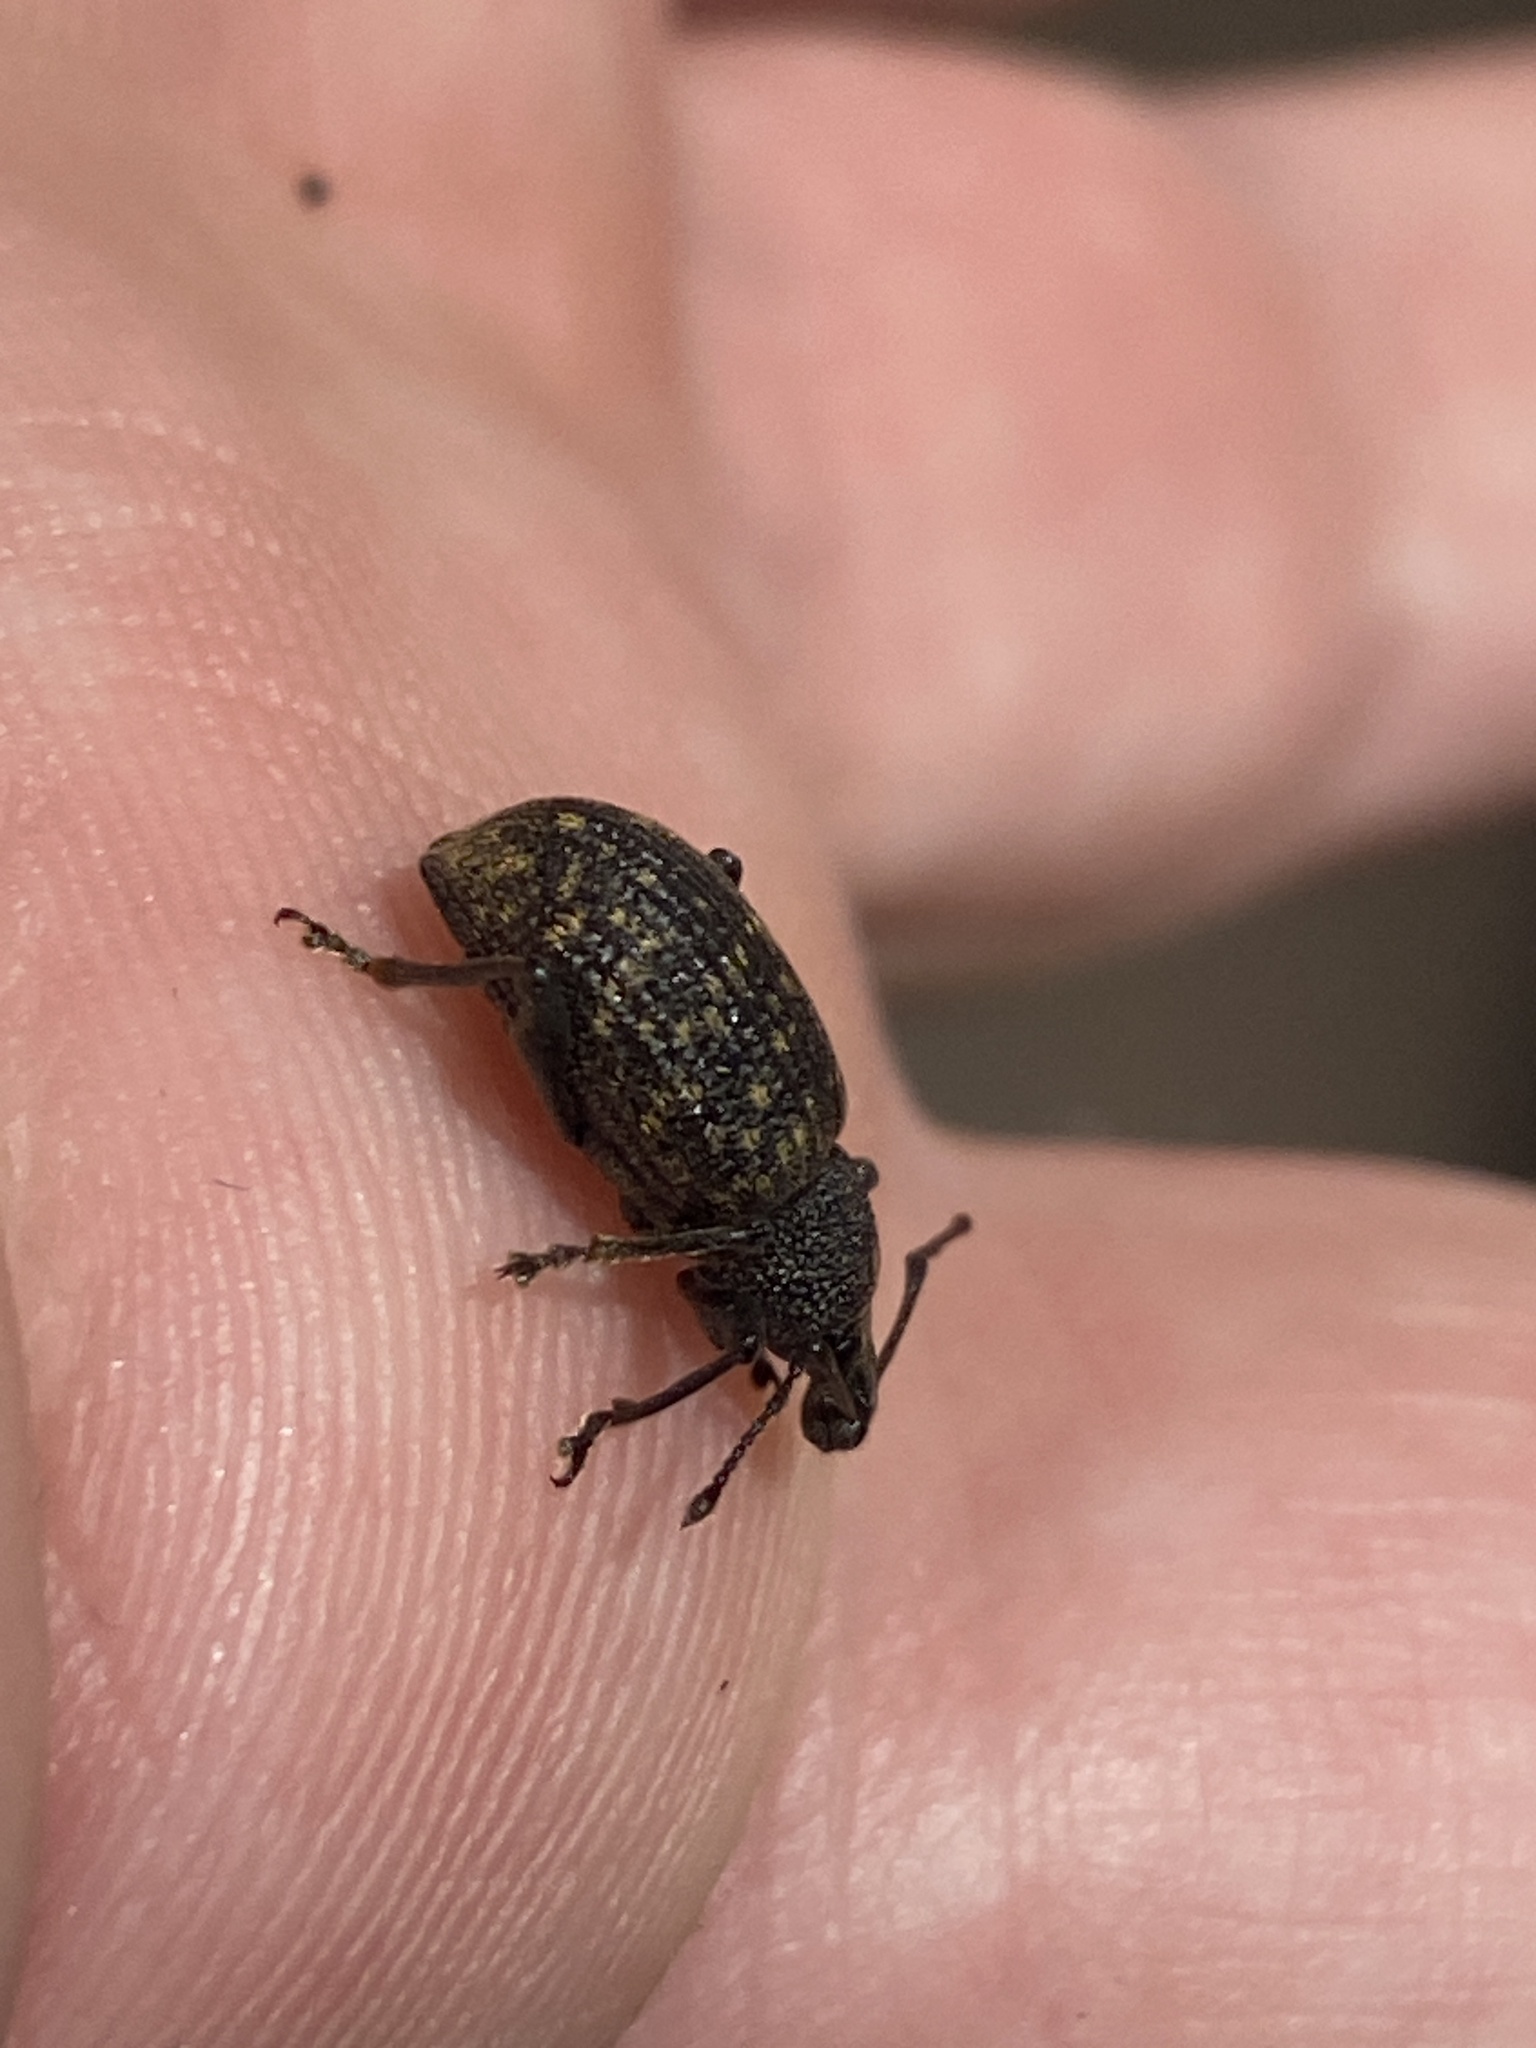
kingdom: Animalia
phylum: Arthropoda
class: Insecta
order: Coleoptera
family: Curculionidae
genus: Otiorhynchus
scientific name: Otiorhynchus sulcatus
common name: Black vine weevil
